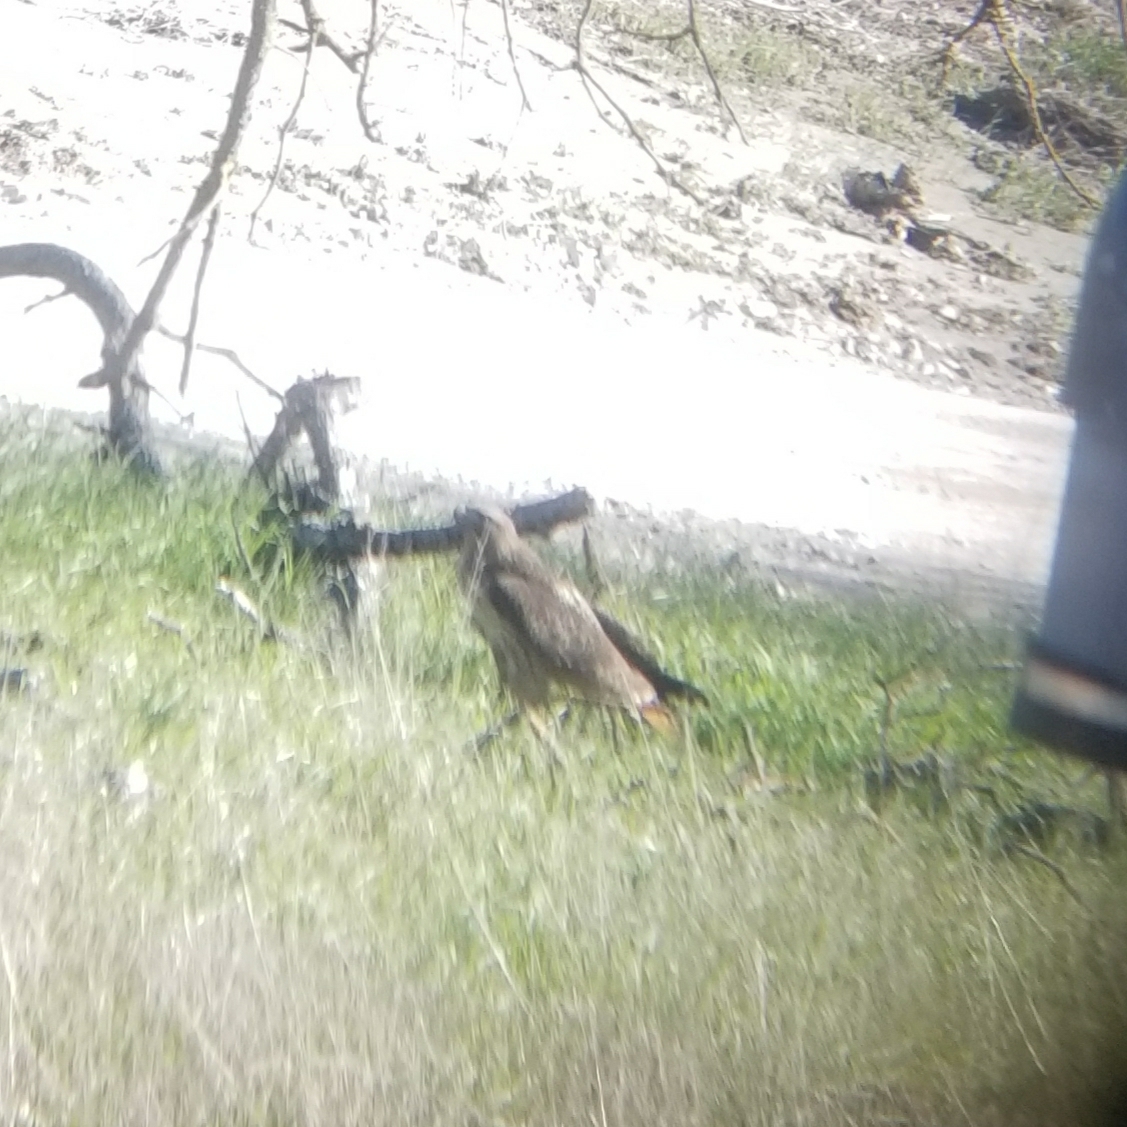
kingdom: Animalia
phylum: Chordata
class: Aves
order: Accipitriformes
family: Accipitridae
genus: Buteo
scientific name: Buteo jamaicensis
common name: Red-tailed hawk
